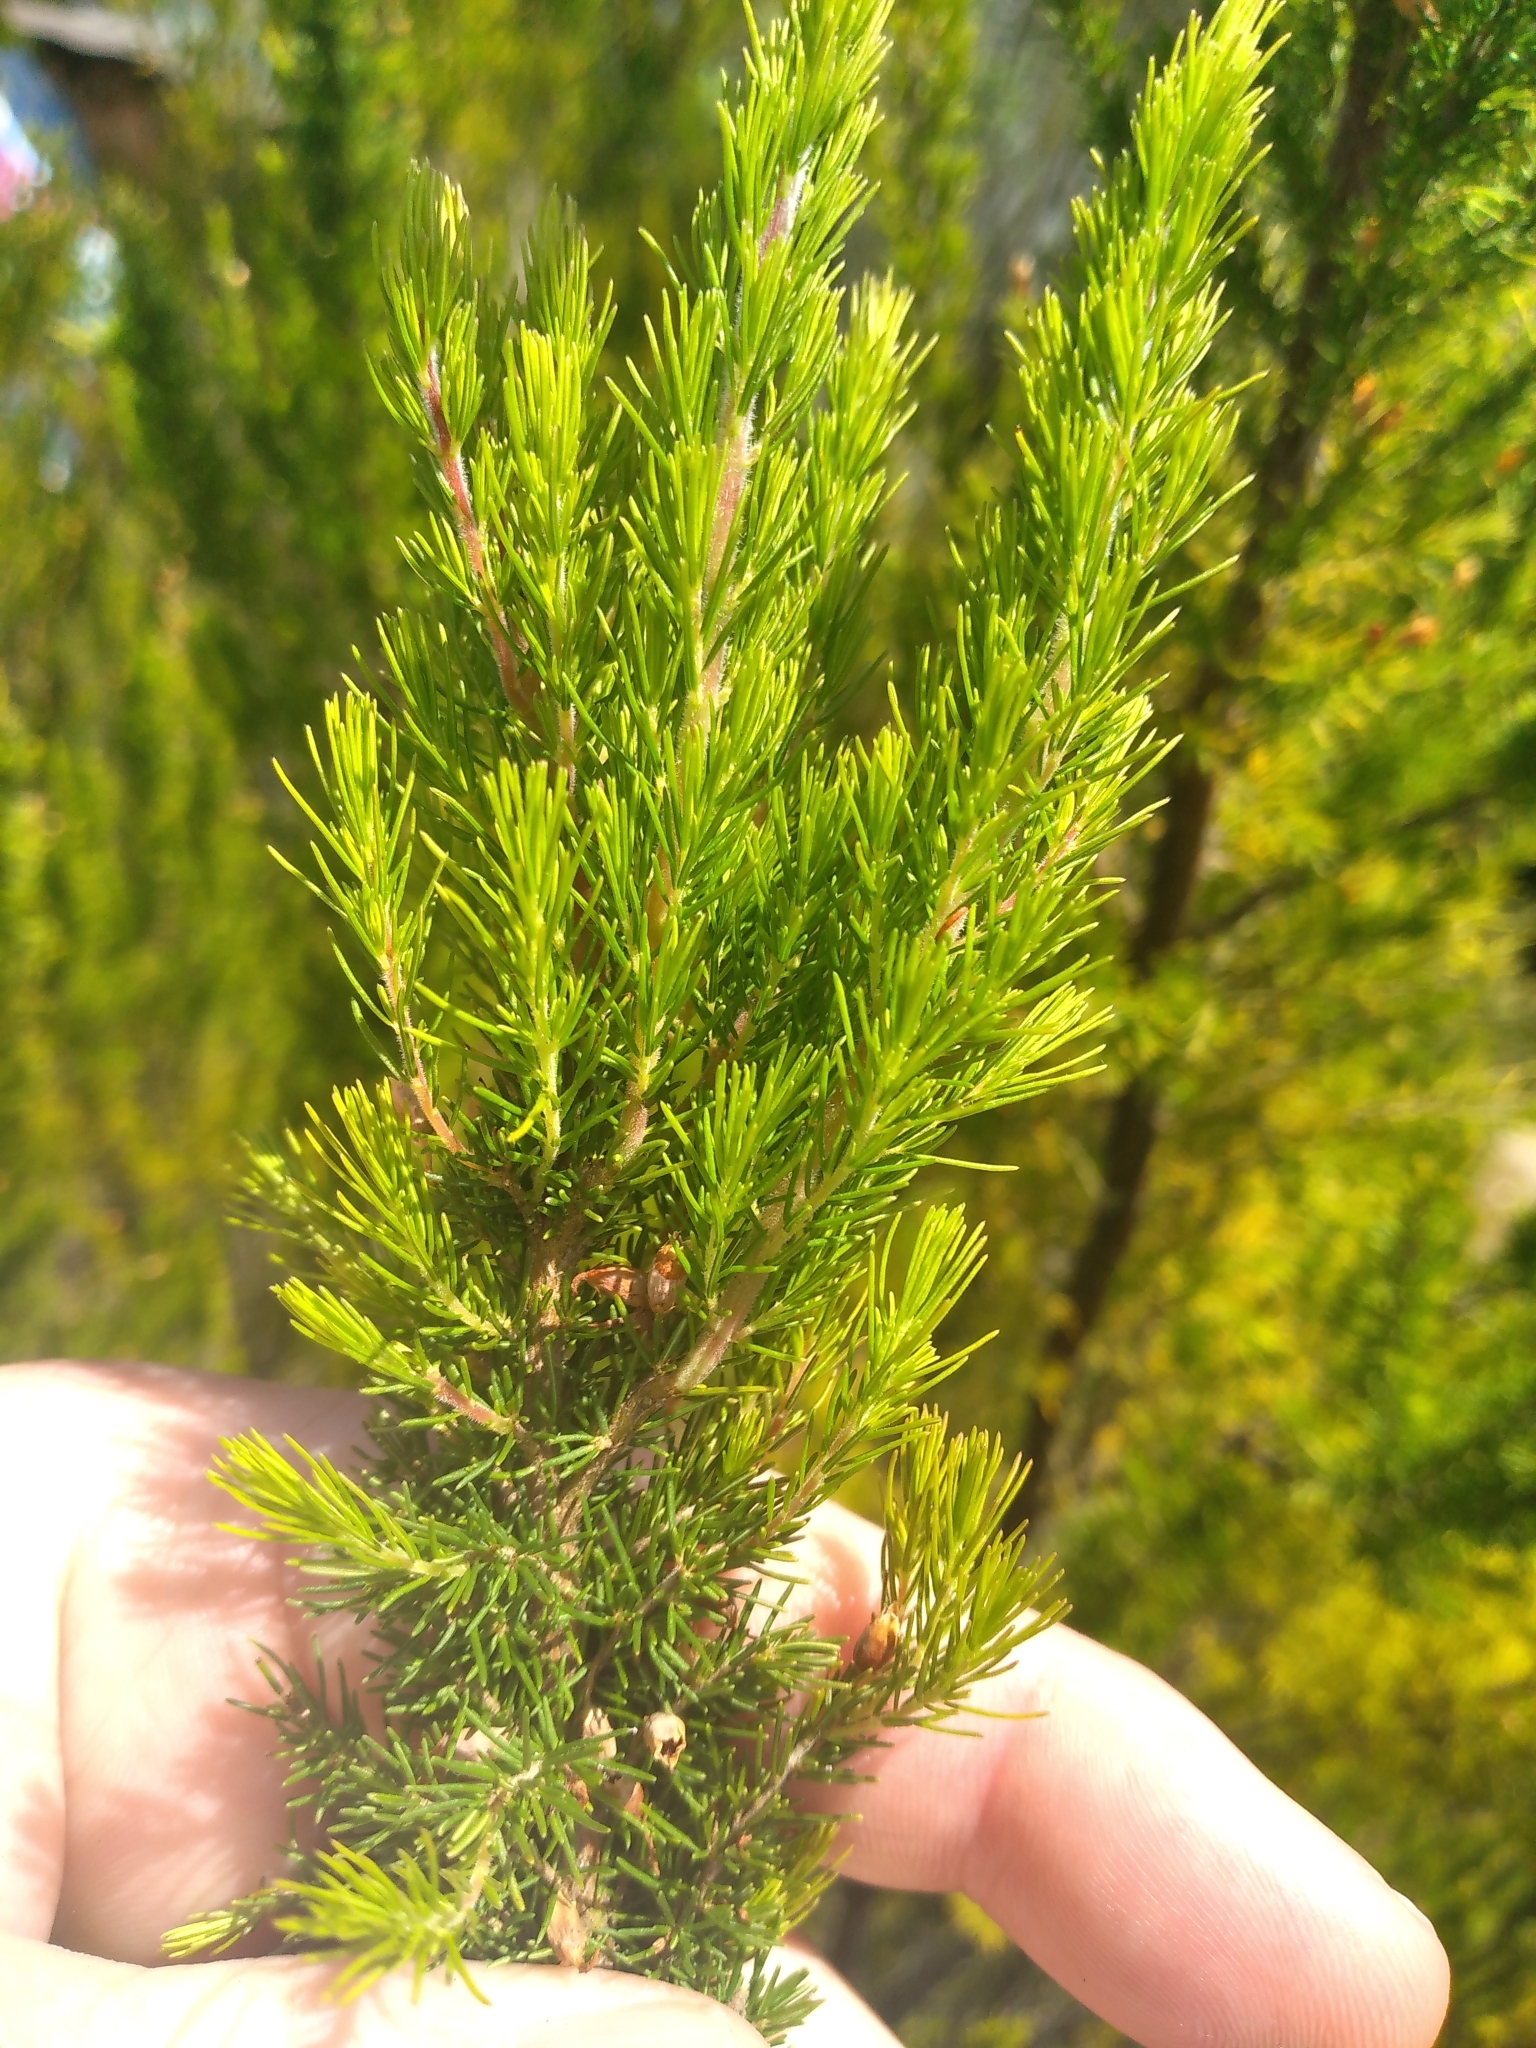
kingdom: Plantae
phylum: Tracheophyta
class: Magnoliopsida
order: Ericales
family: Ericaceae
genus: Erica
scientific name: Erica lusitanica
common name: Spanish heath
